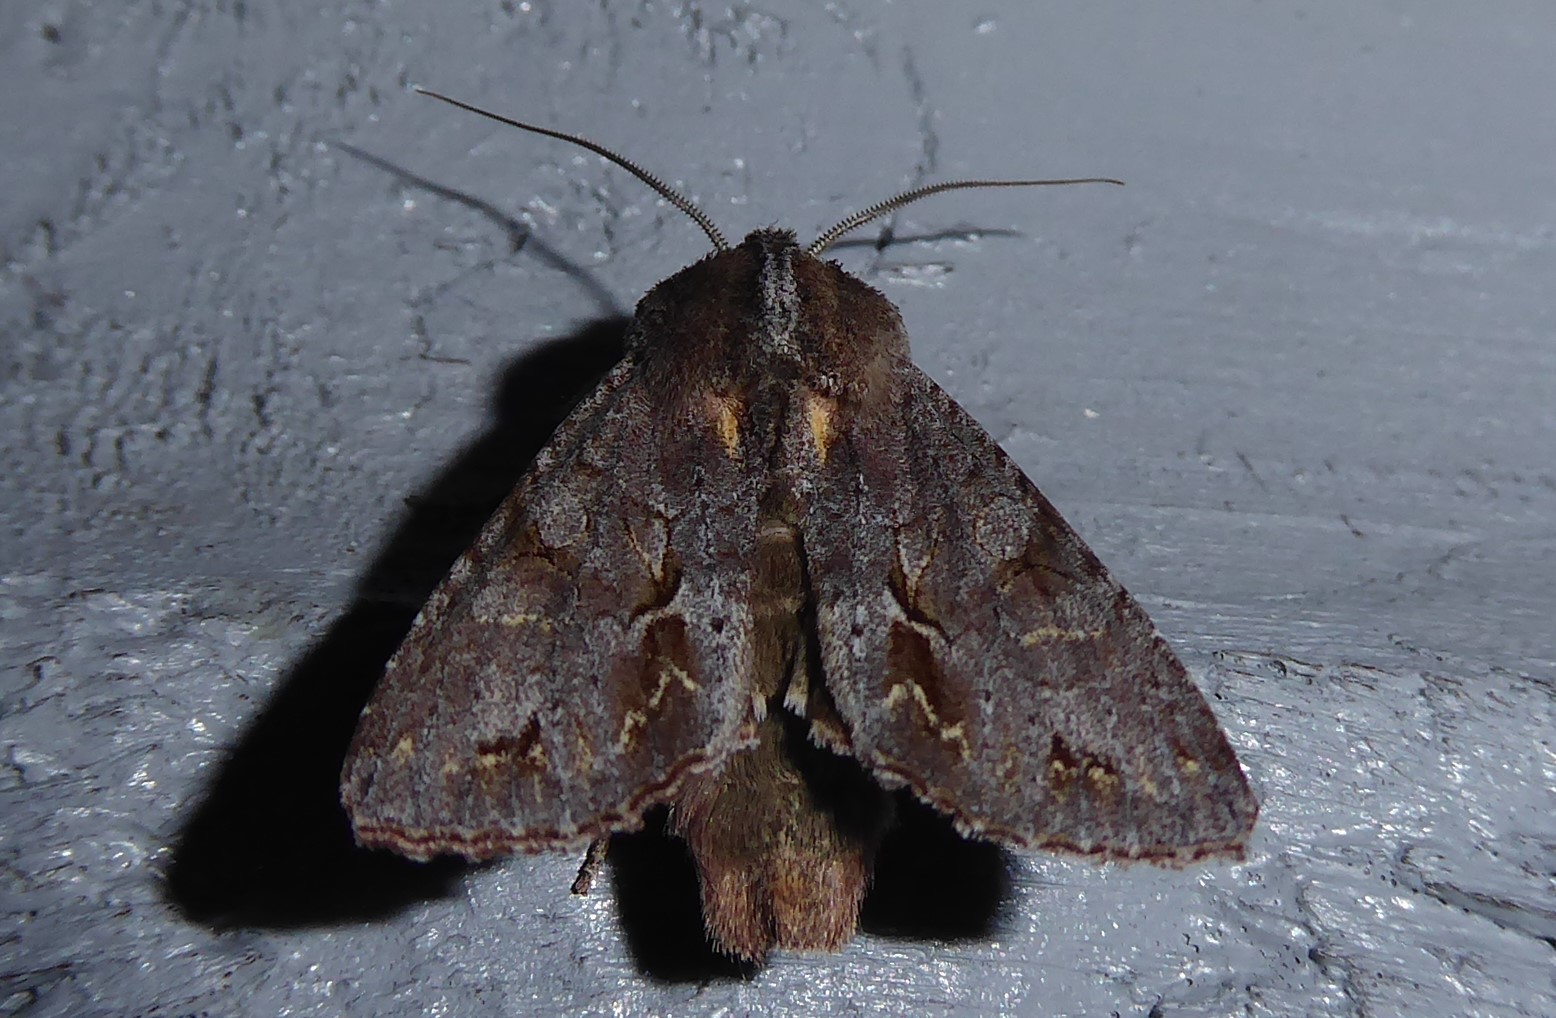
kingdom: Animalia
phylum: Arthropoda
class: Insecta
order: Lepidoptera
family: Noctuidae
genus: Ichneutica
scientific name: Ichneutica
